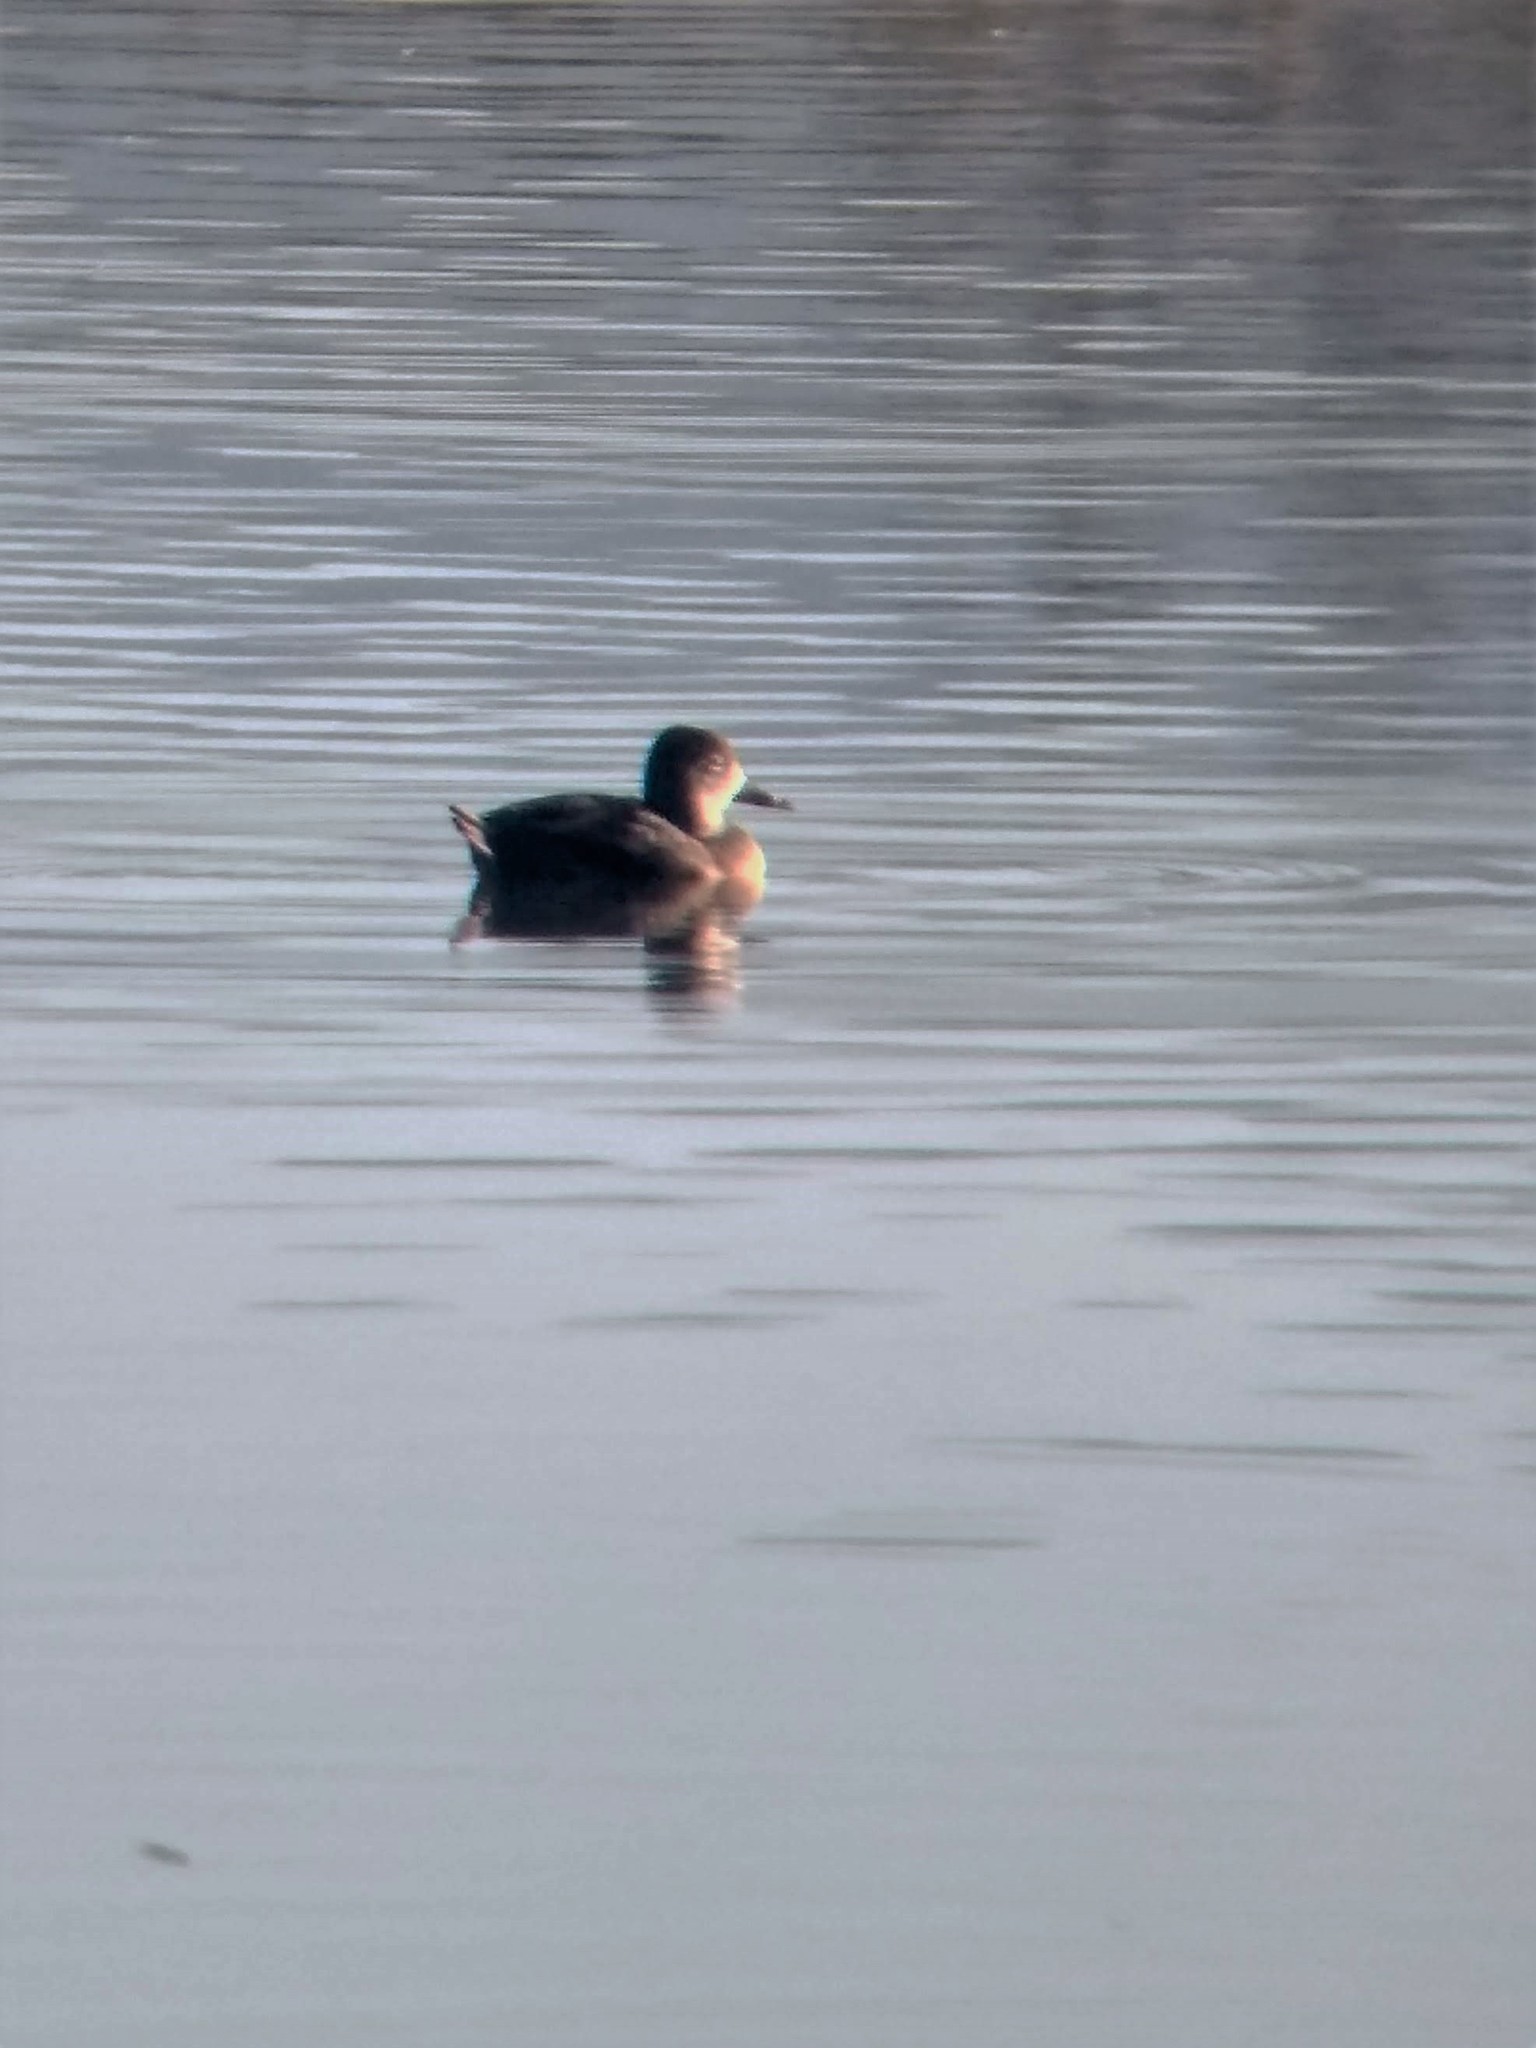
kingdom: Animalia
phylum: Chordata
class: Aves
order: Anseriformes
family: Anatidae
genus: Aythya
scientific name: Aythya collaris
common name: Ring-necked duck
